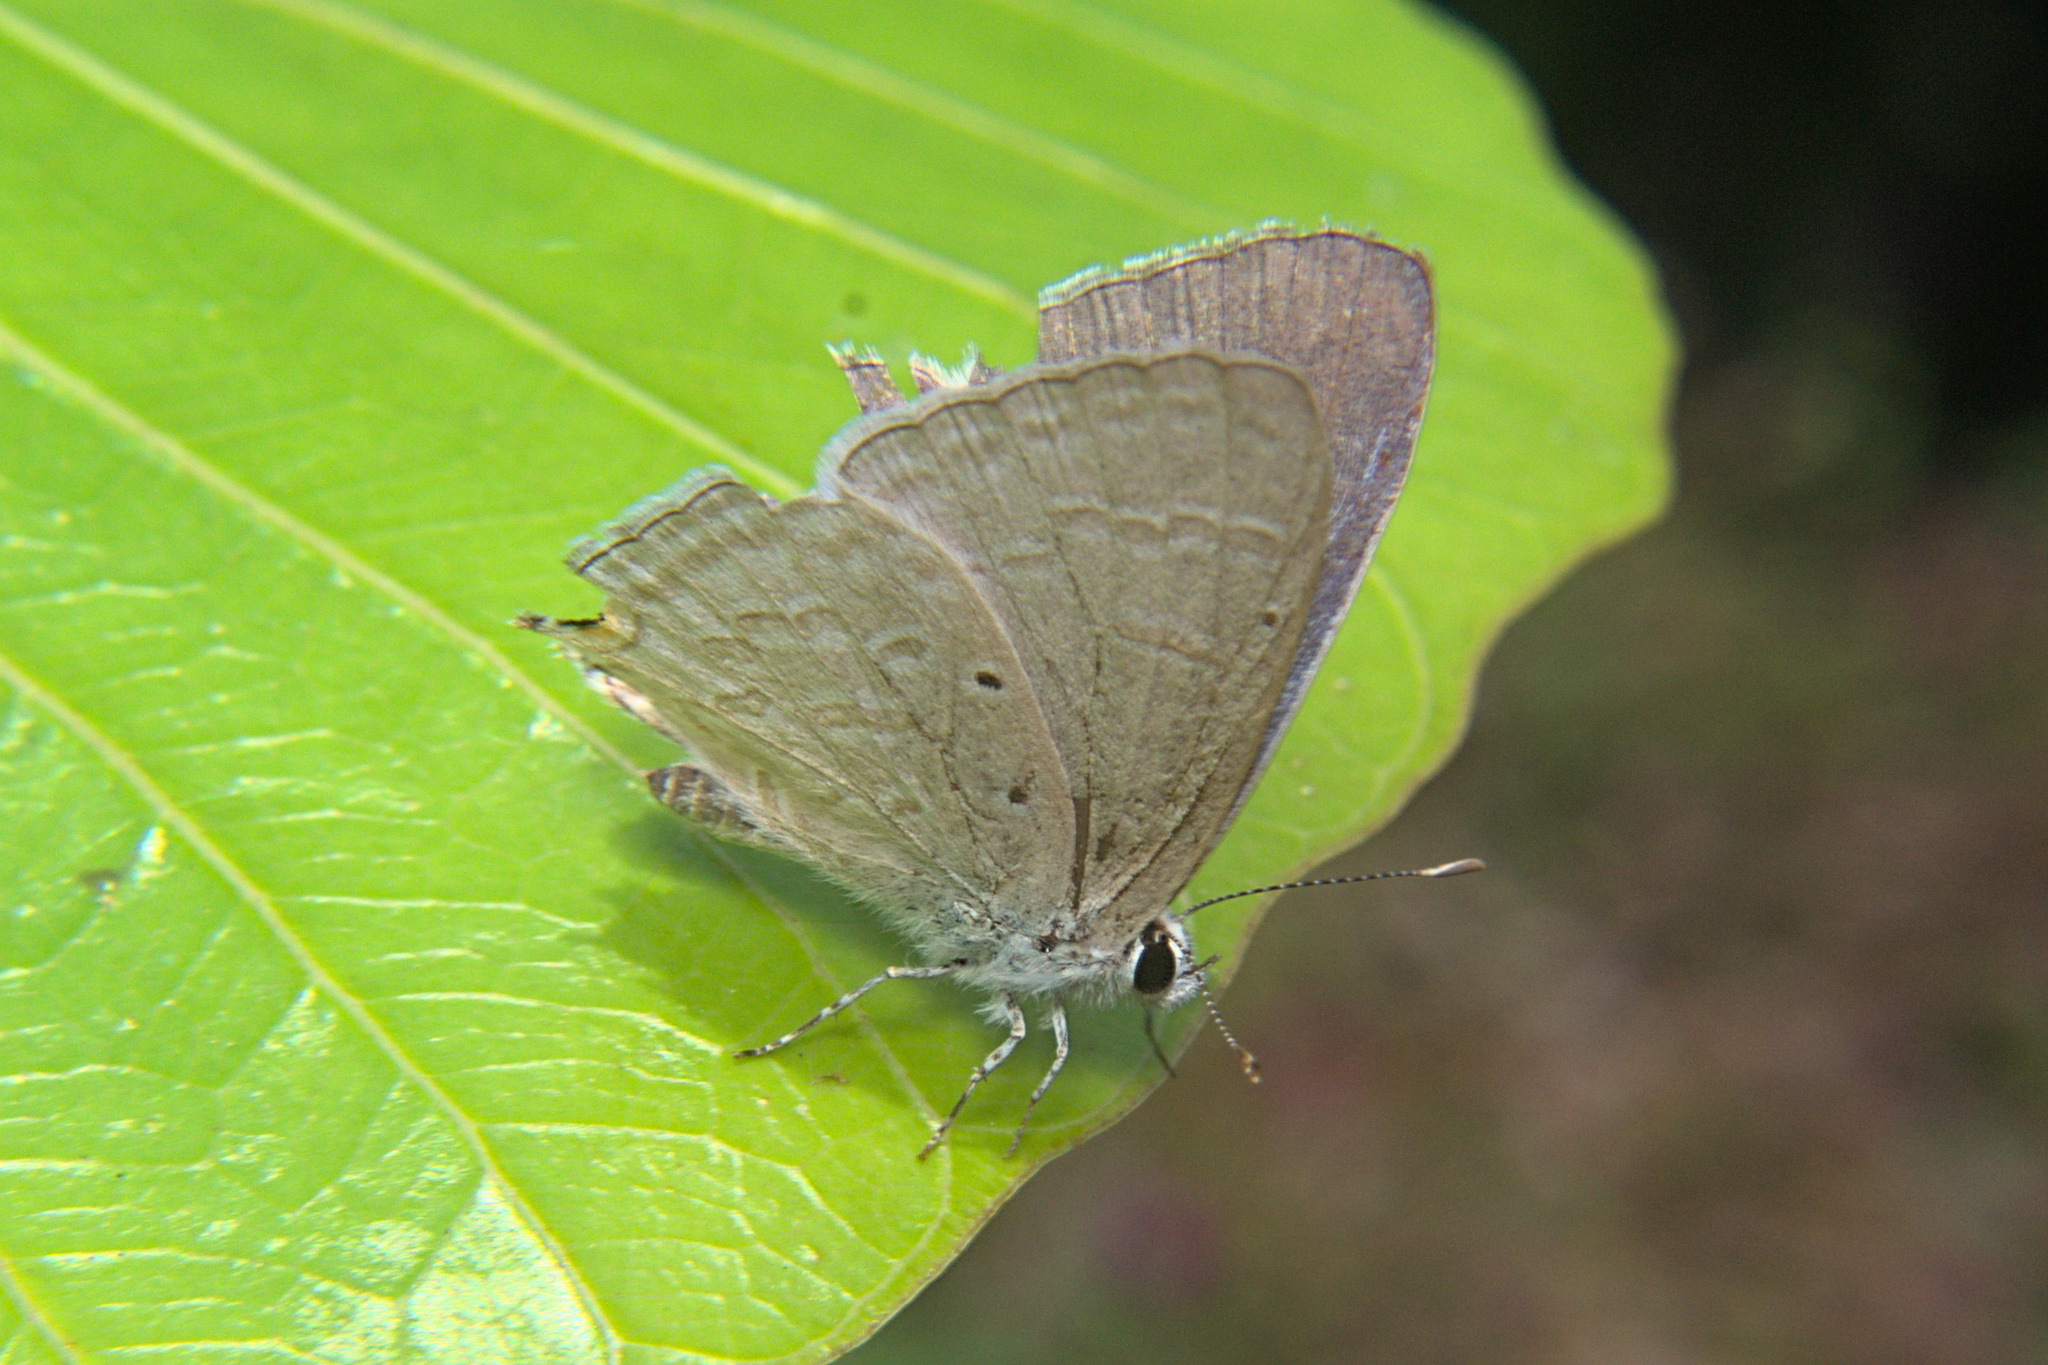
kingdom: Animalia
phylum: Arthropoda
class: Insecta
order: Lepidoptera
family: Lycaenidae
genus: Catochrysops
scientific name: Catochrysops strabo
